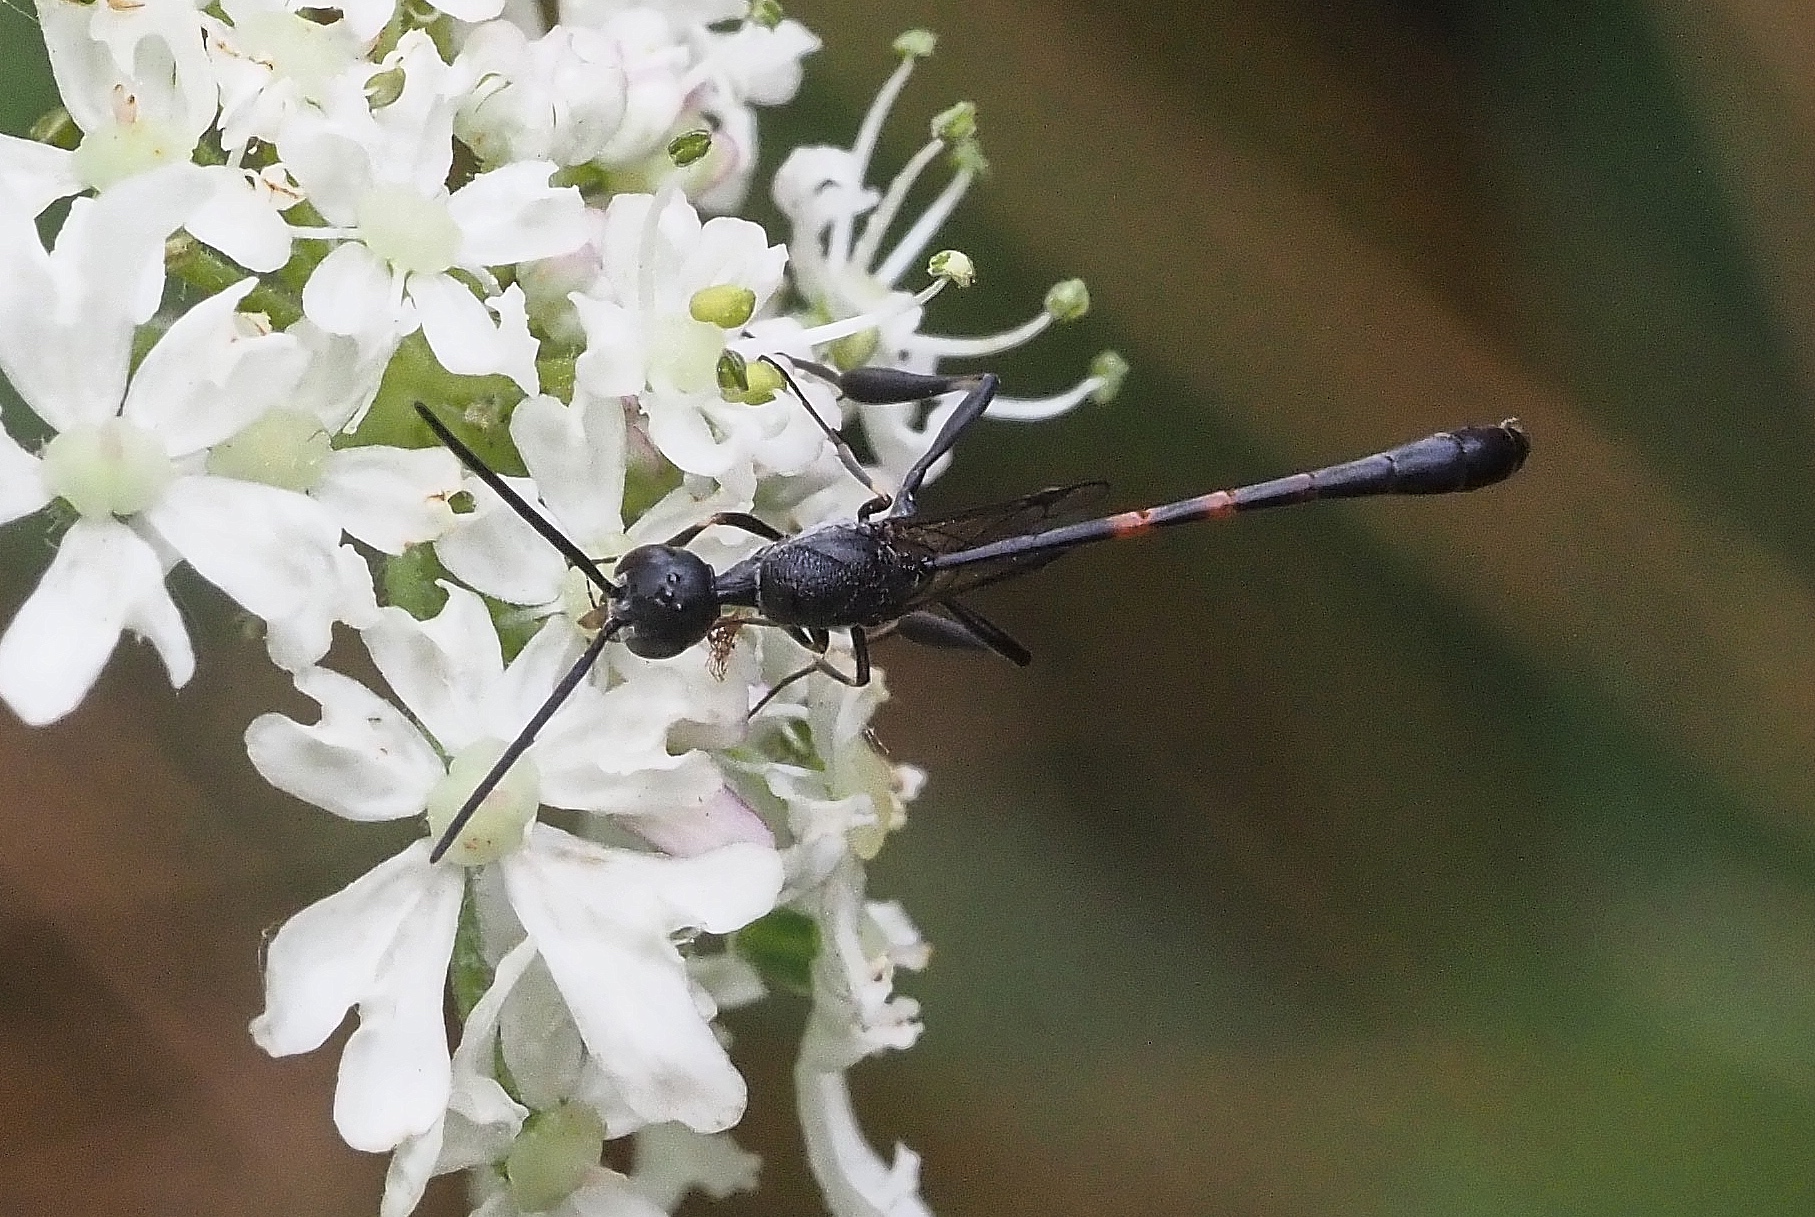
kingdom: Animalia
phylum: Arthropoda
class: Insecta
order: Hymenoptera
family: Gasteruptiidae
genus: Gasteruption
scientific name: Gasteruption jaculator
